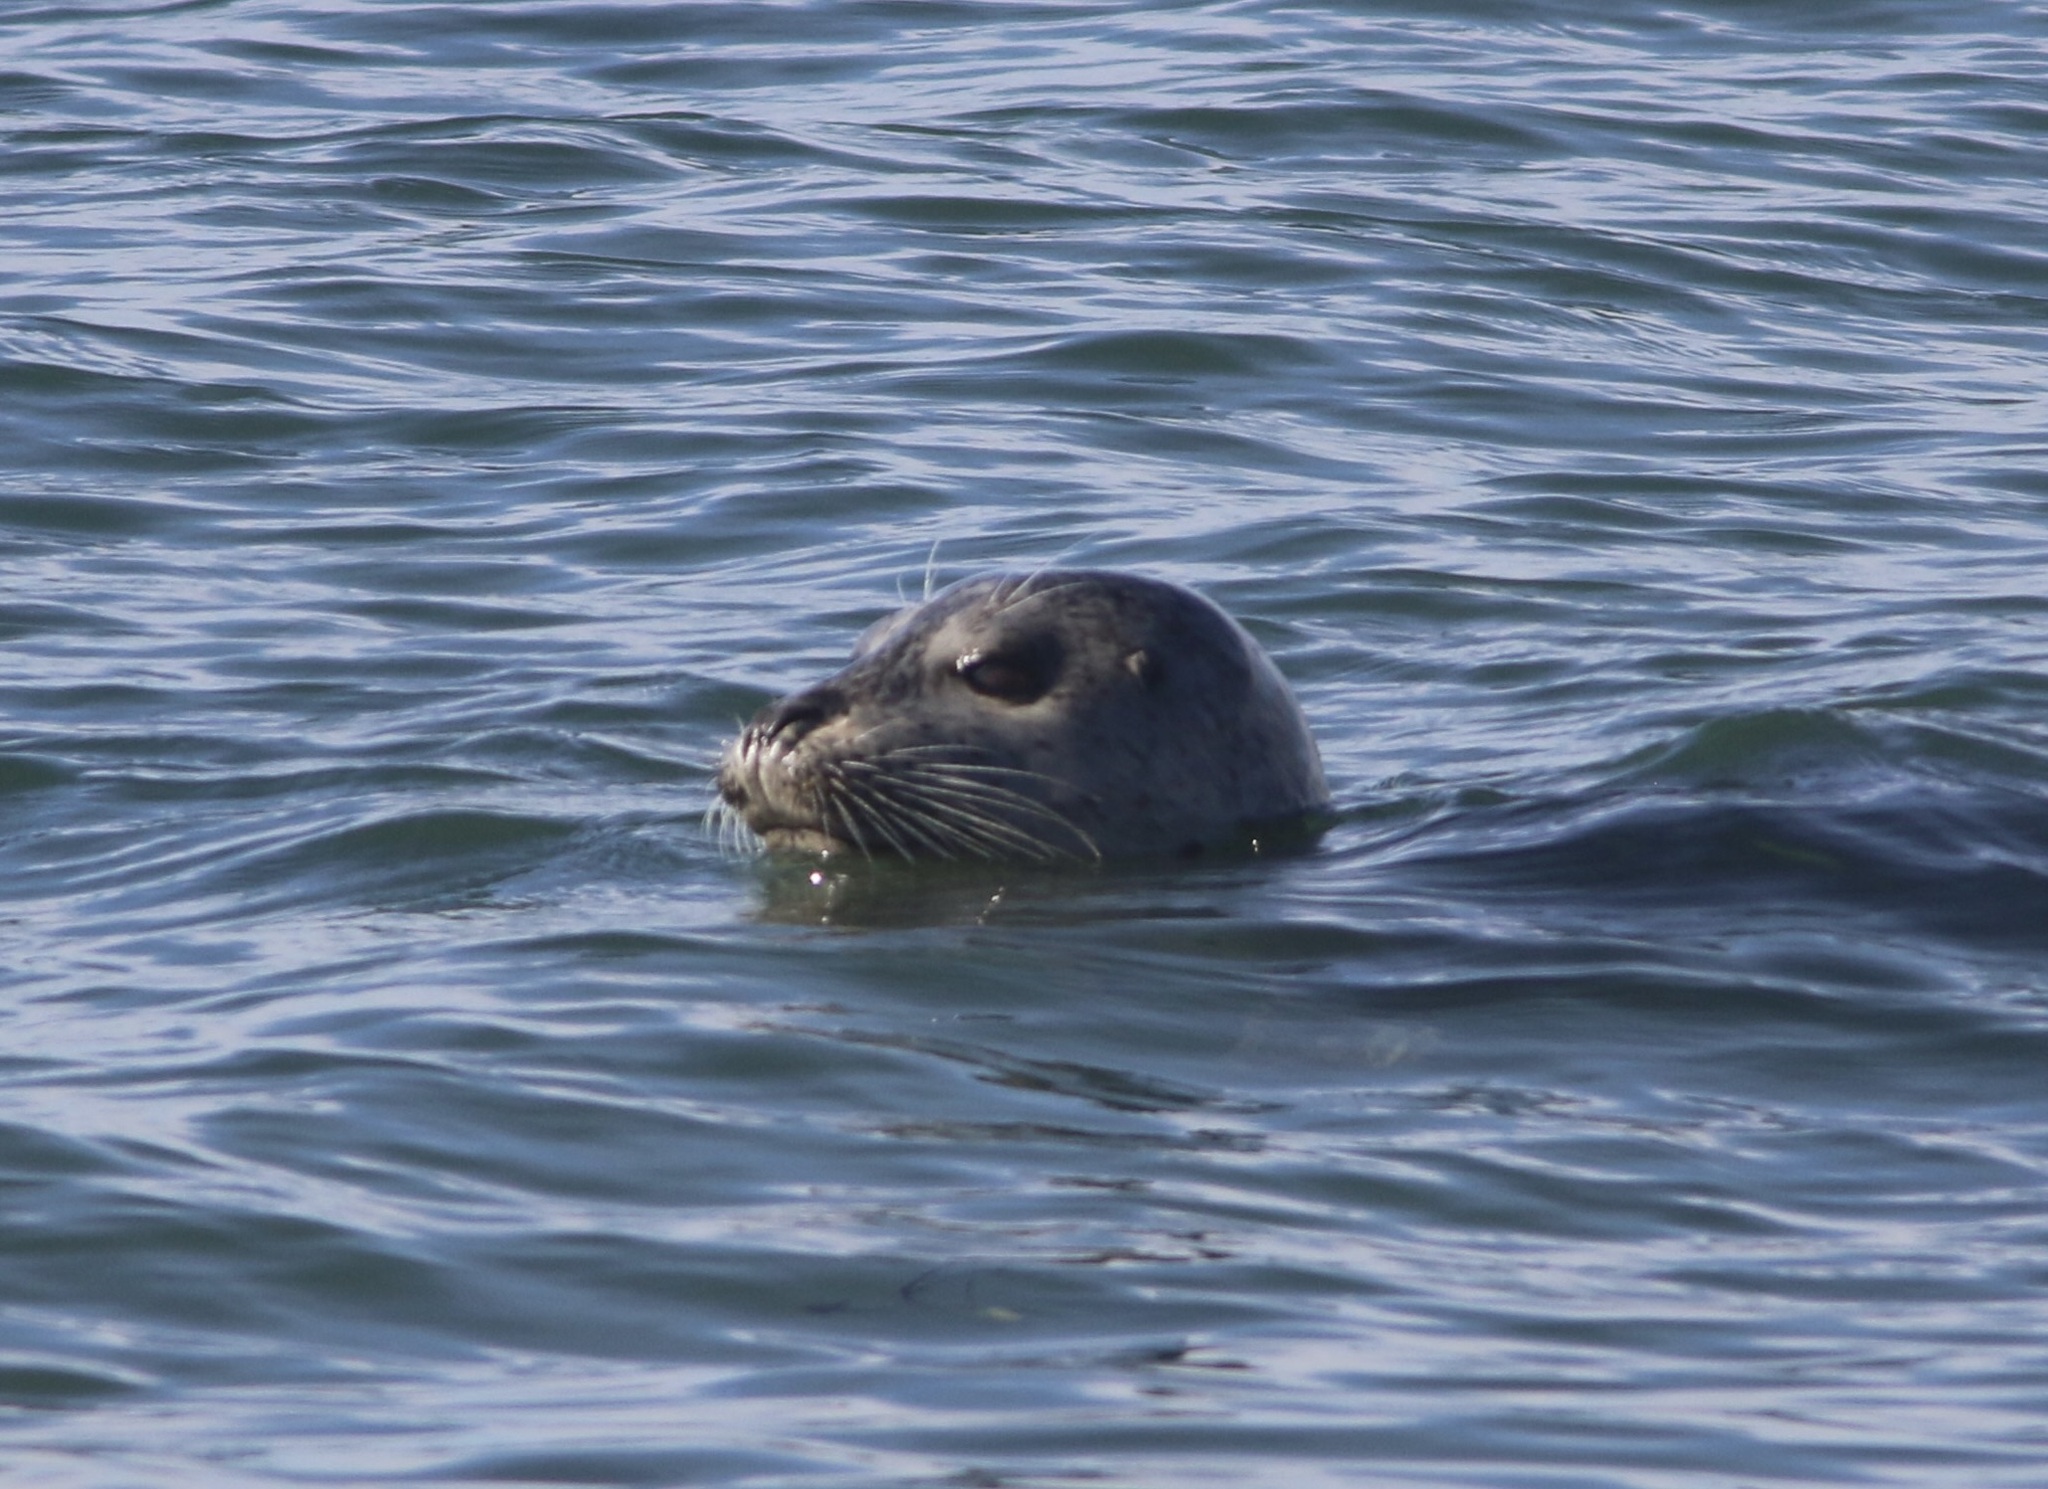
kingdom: Animalia
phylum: Chordata
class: Mammalia
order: Carnivora
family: Phocidae
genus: Phoca
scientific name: Phoca vitulina
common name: Harbor seal
